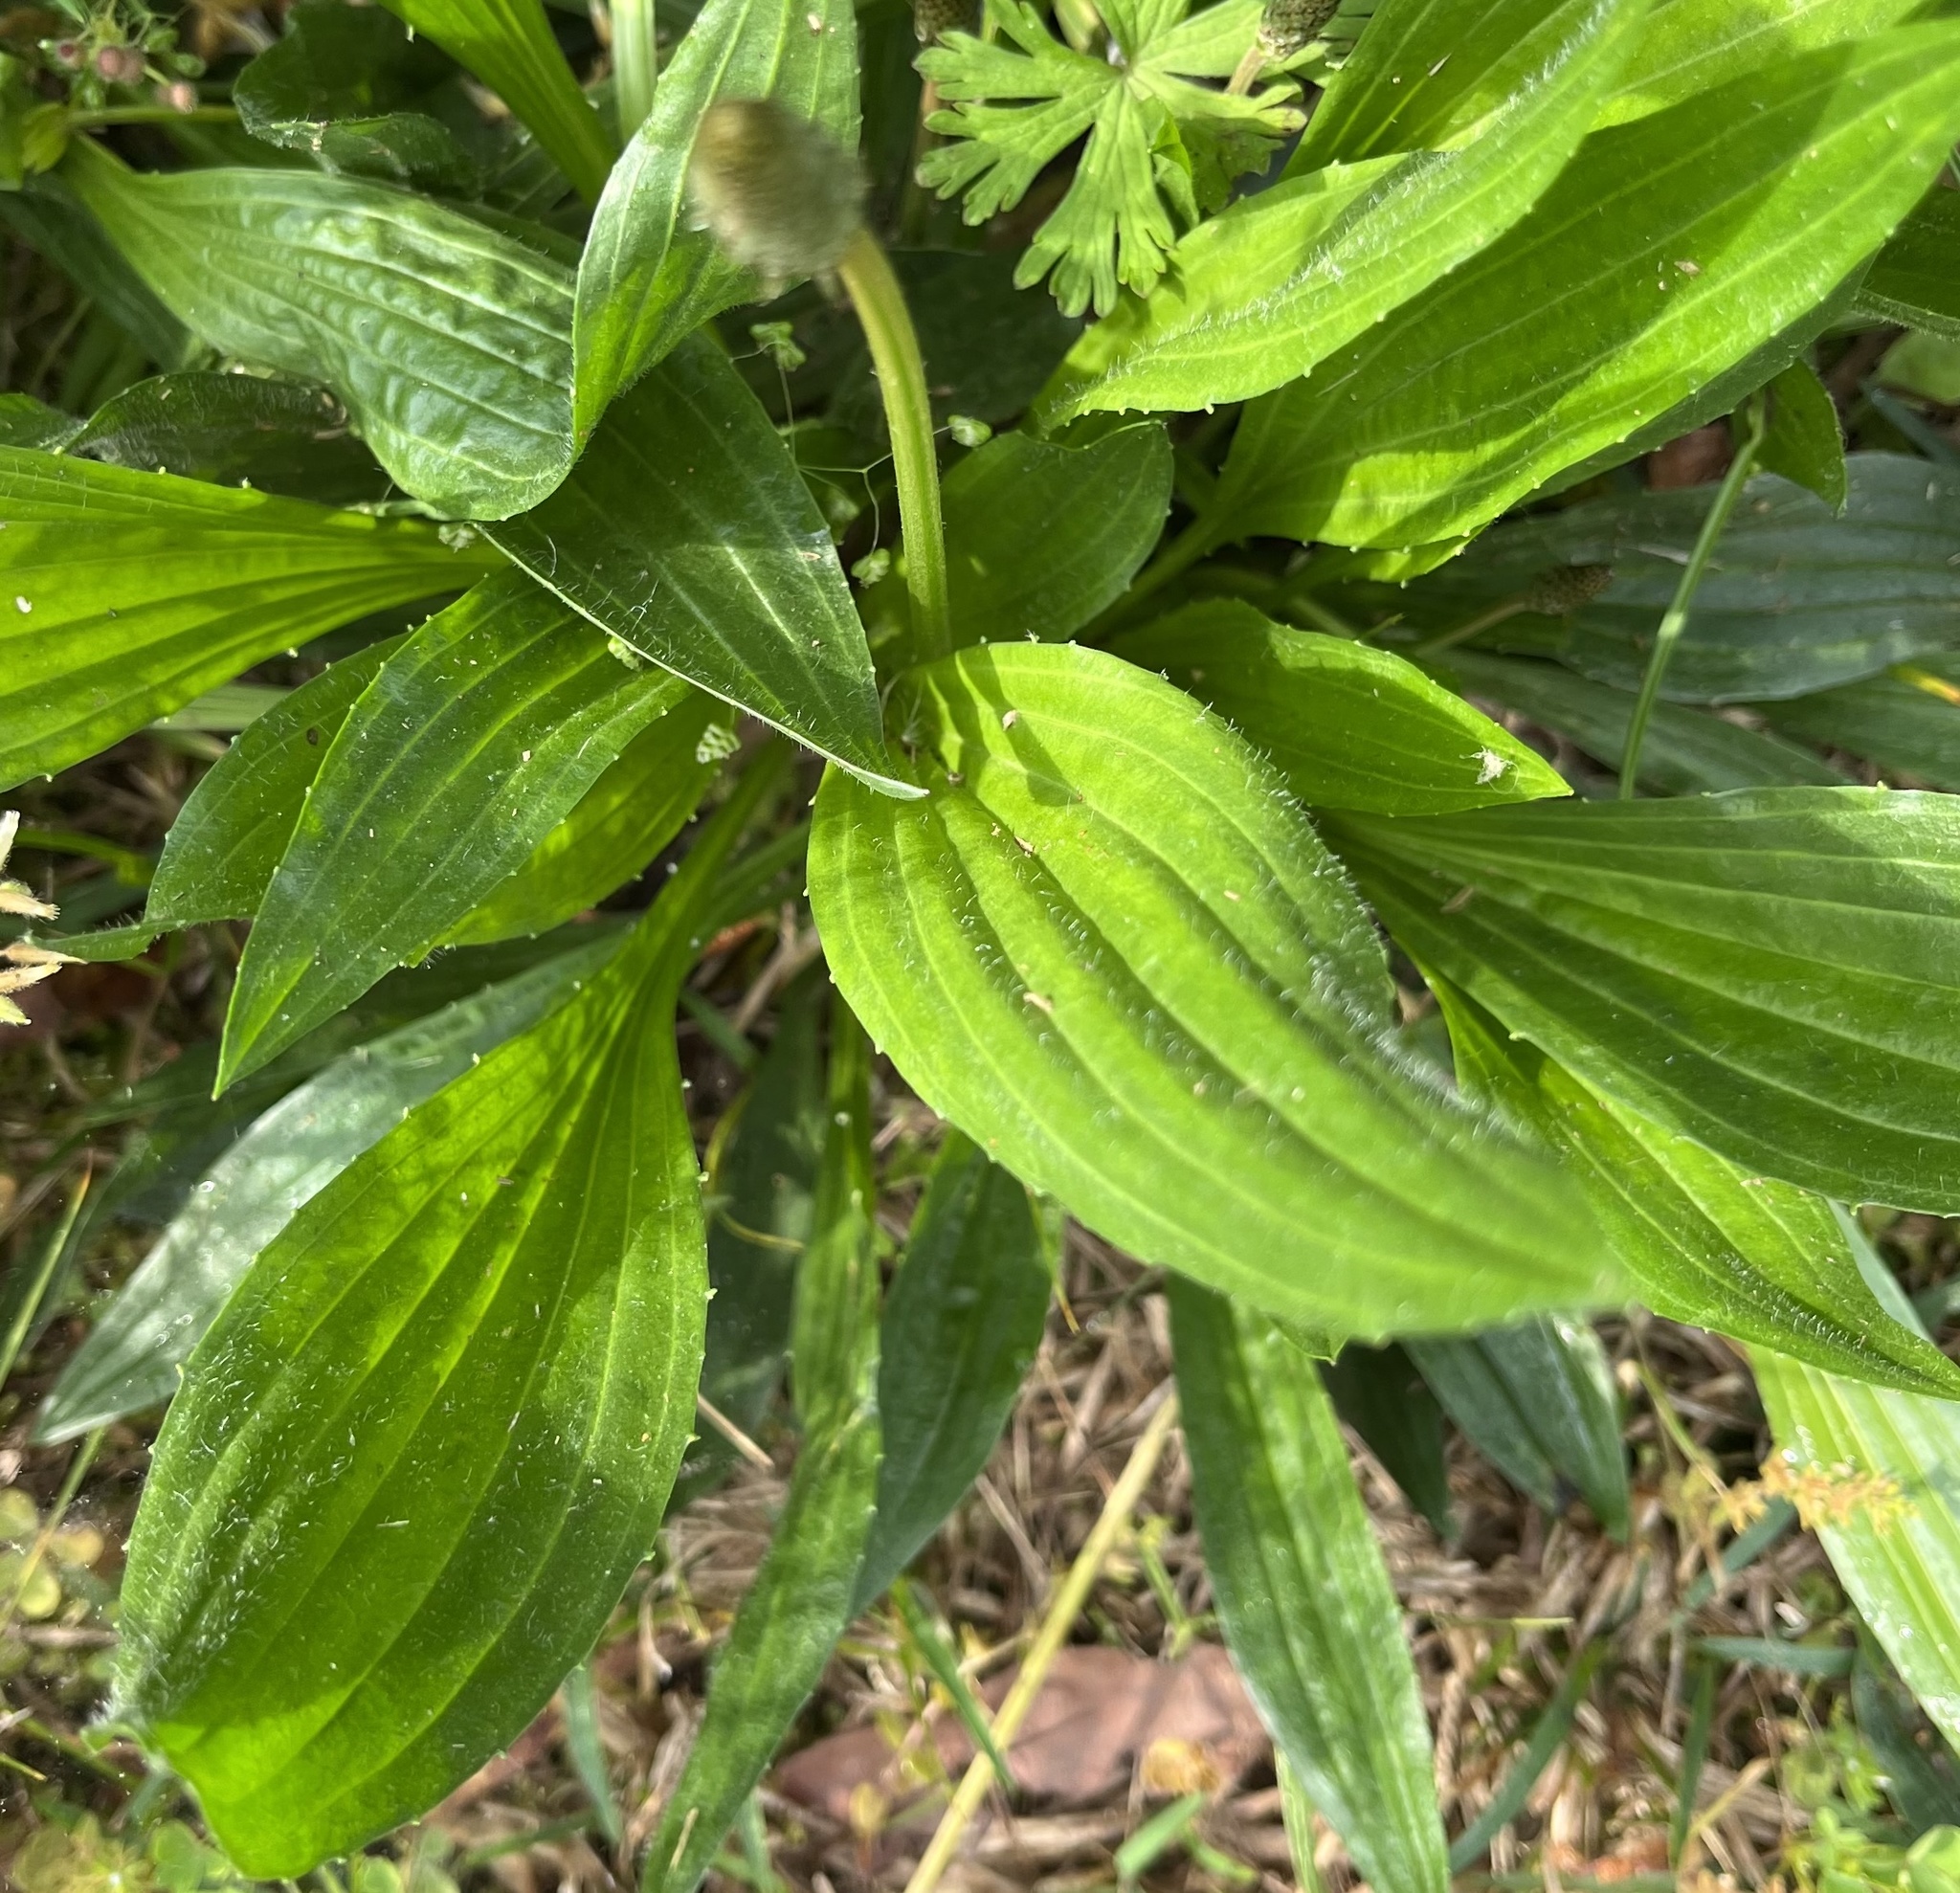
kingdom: Plantae
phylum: Tracheophyta
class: Magnoliopsida
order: Lamiales
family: Plantaginaceae
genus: Plantago
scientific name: Plantago lanceolata
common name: Ribwort plantain
